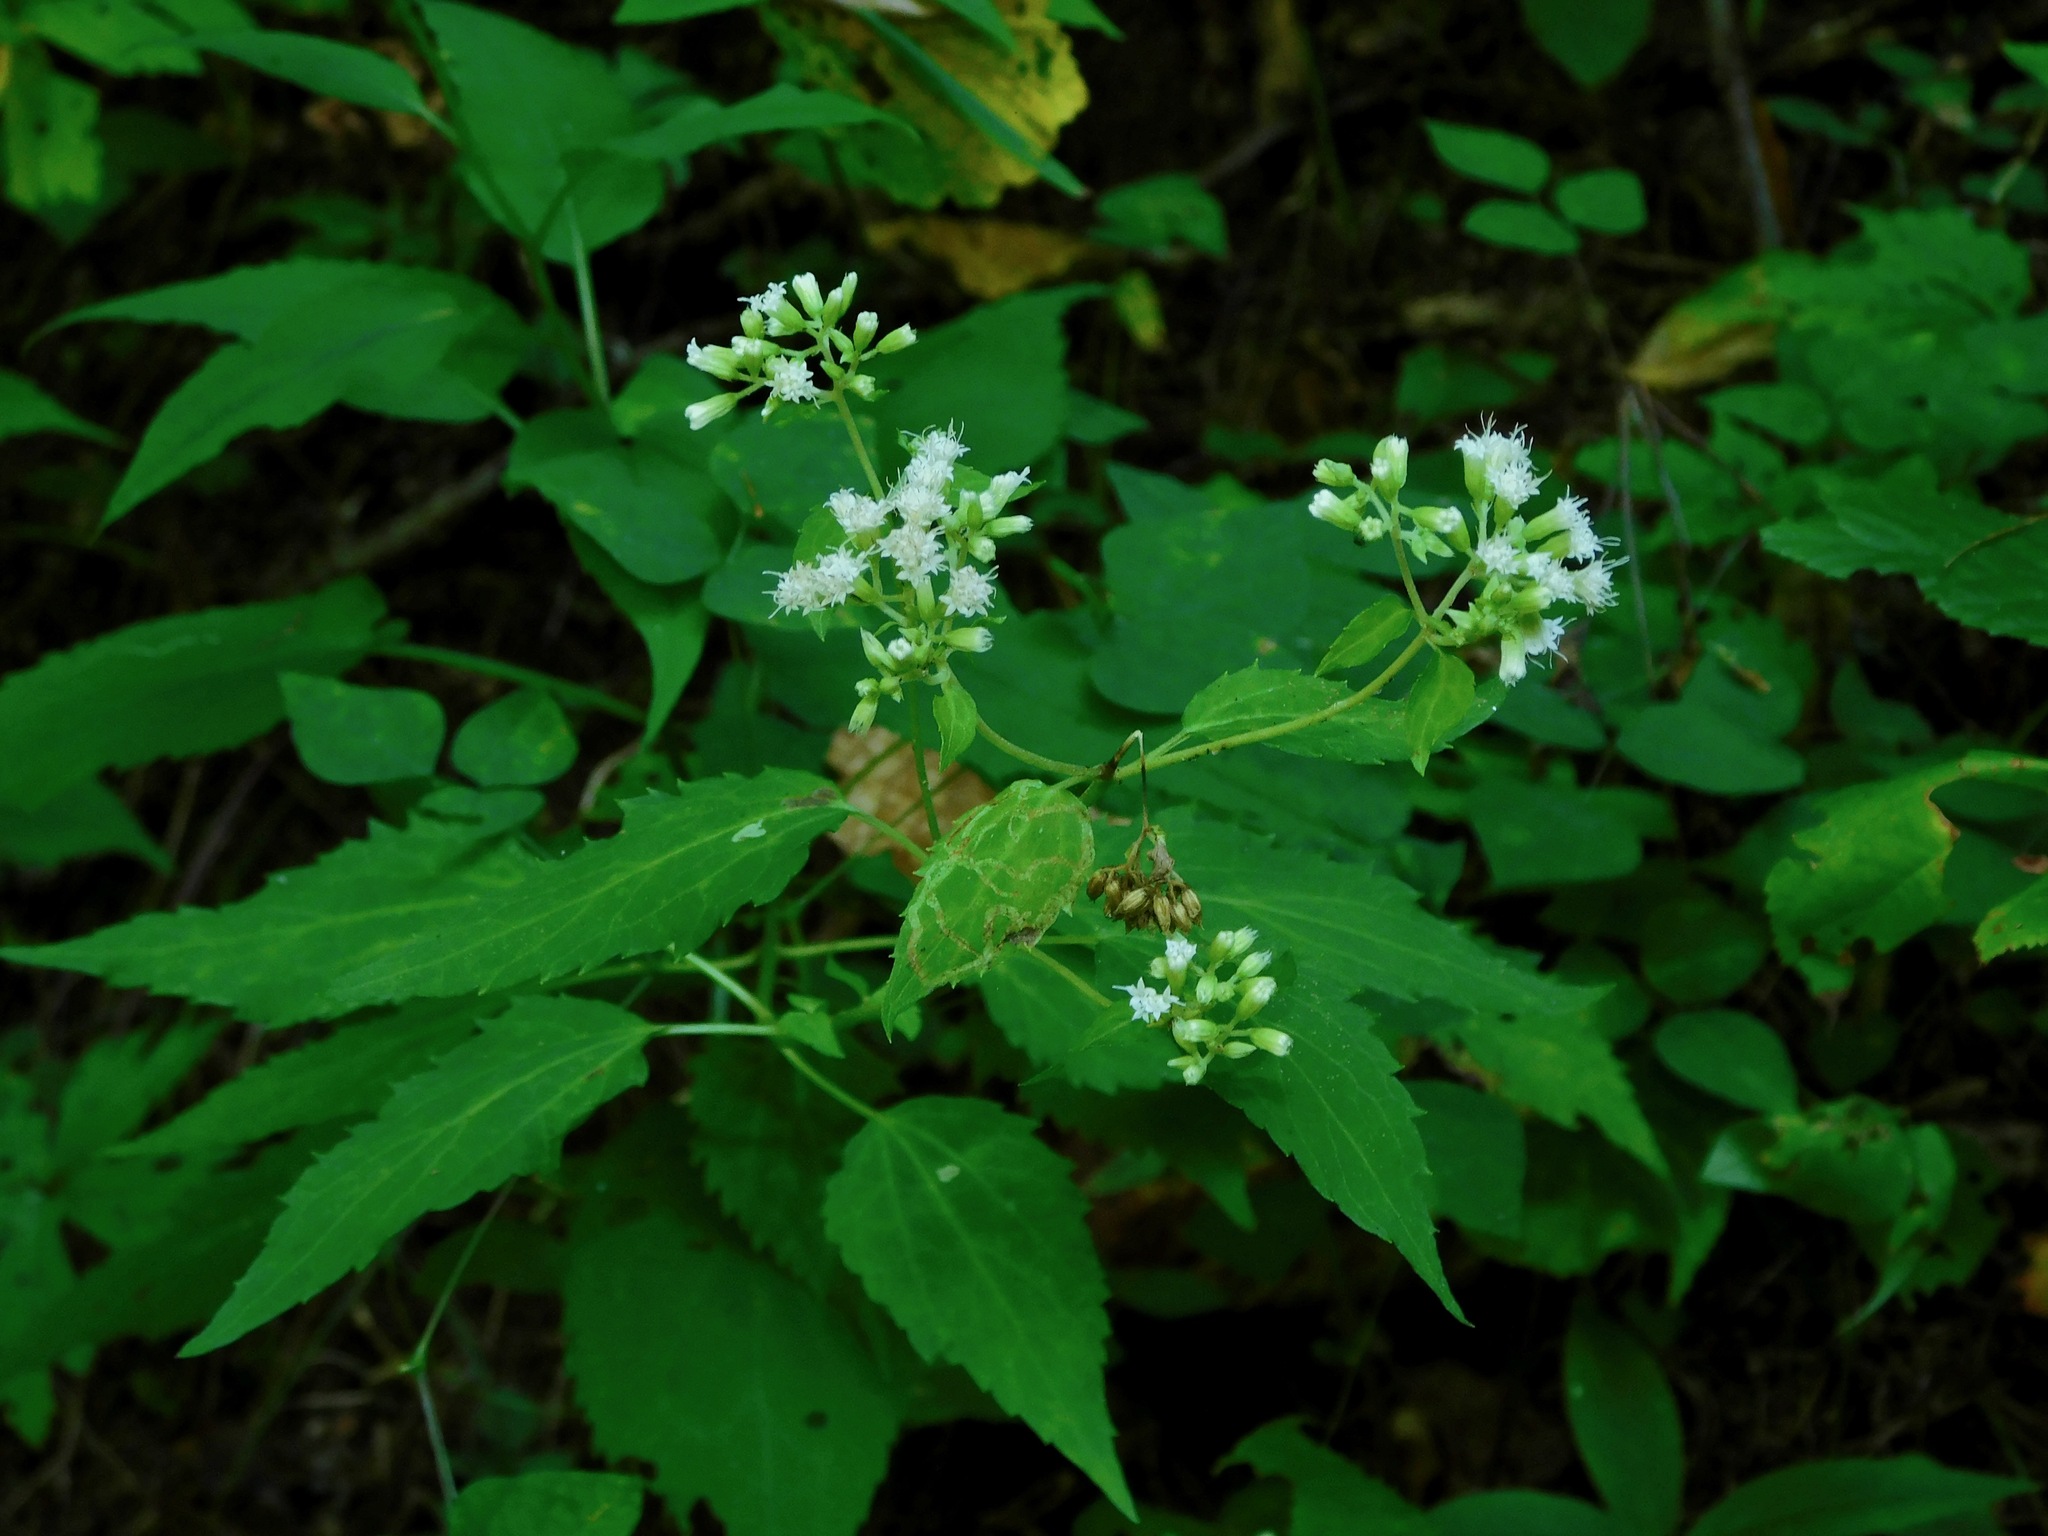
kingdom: Plantae
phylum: Tracheophyta
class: Magnoliopsida
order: Asterales
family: Asteraceae
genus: Ageratina
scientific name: Ageratina altissima
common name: White snakeroot
